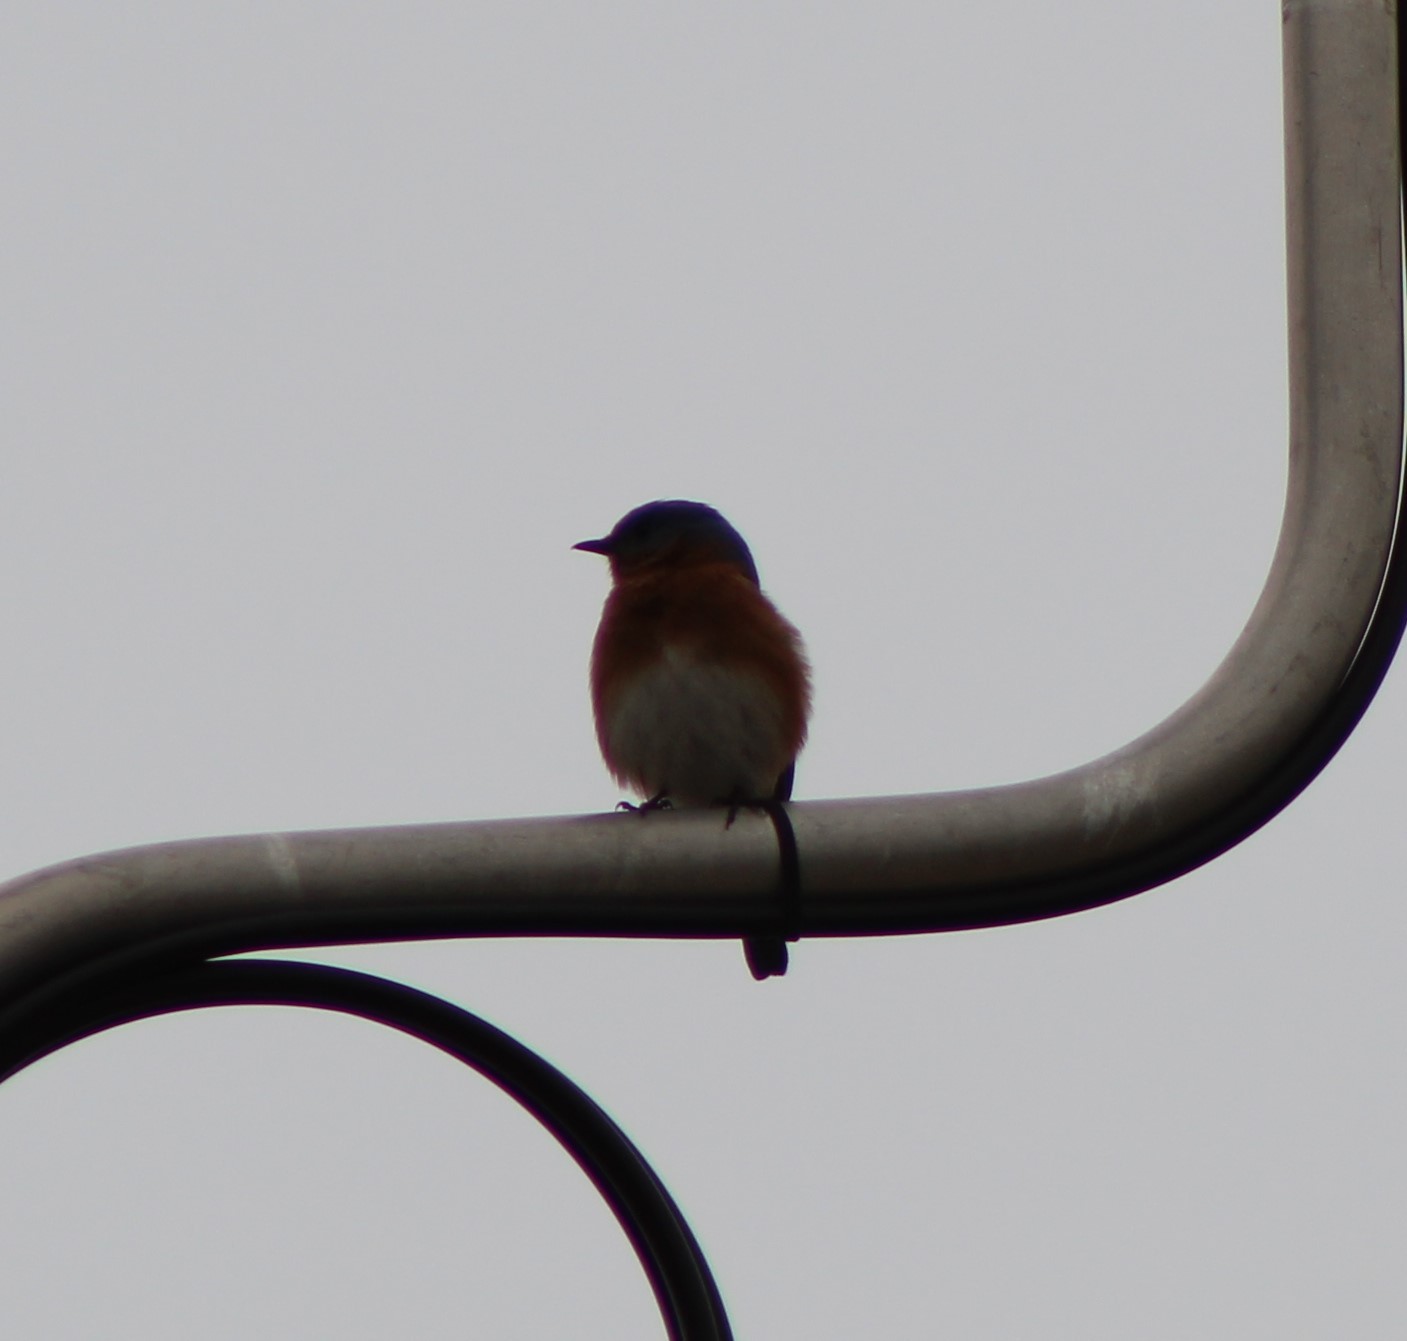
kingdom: Animalia
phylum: Chordata
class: Aves
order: Passeriformes
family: Turdidae
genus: Sialia
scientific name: Sialia sialis
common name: Eastern bluebird
